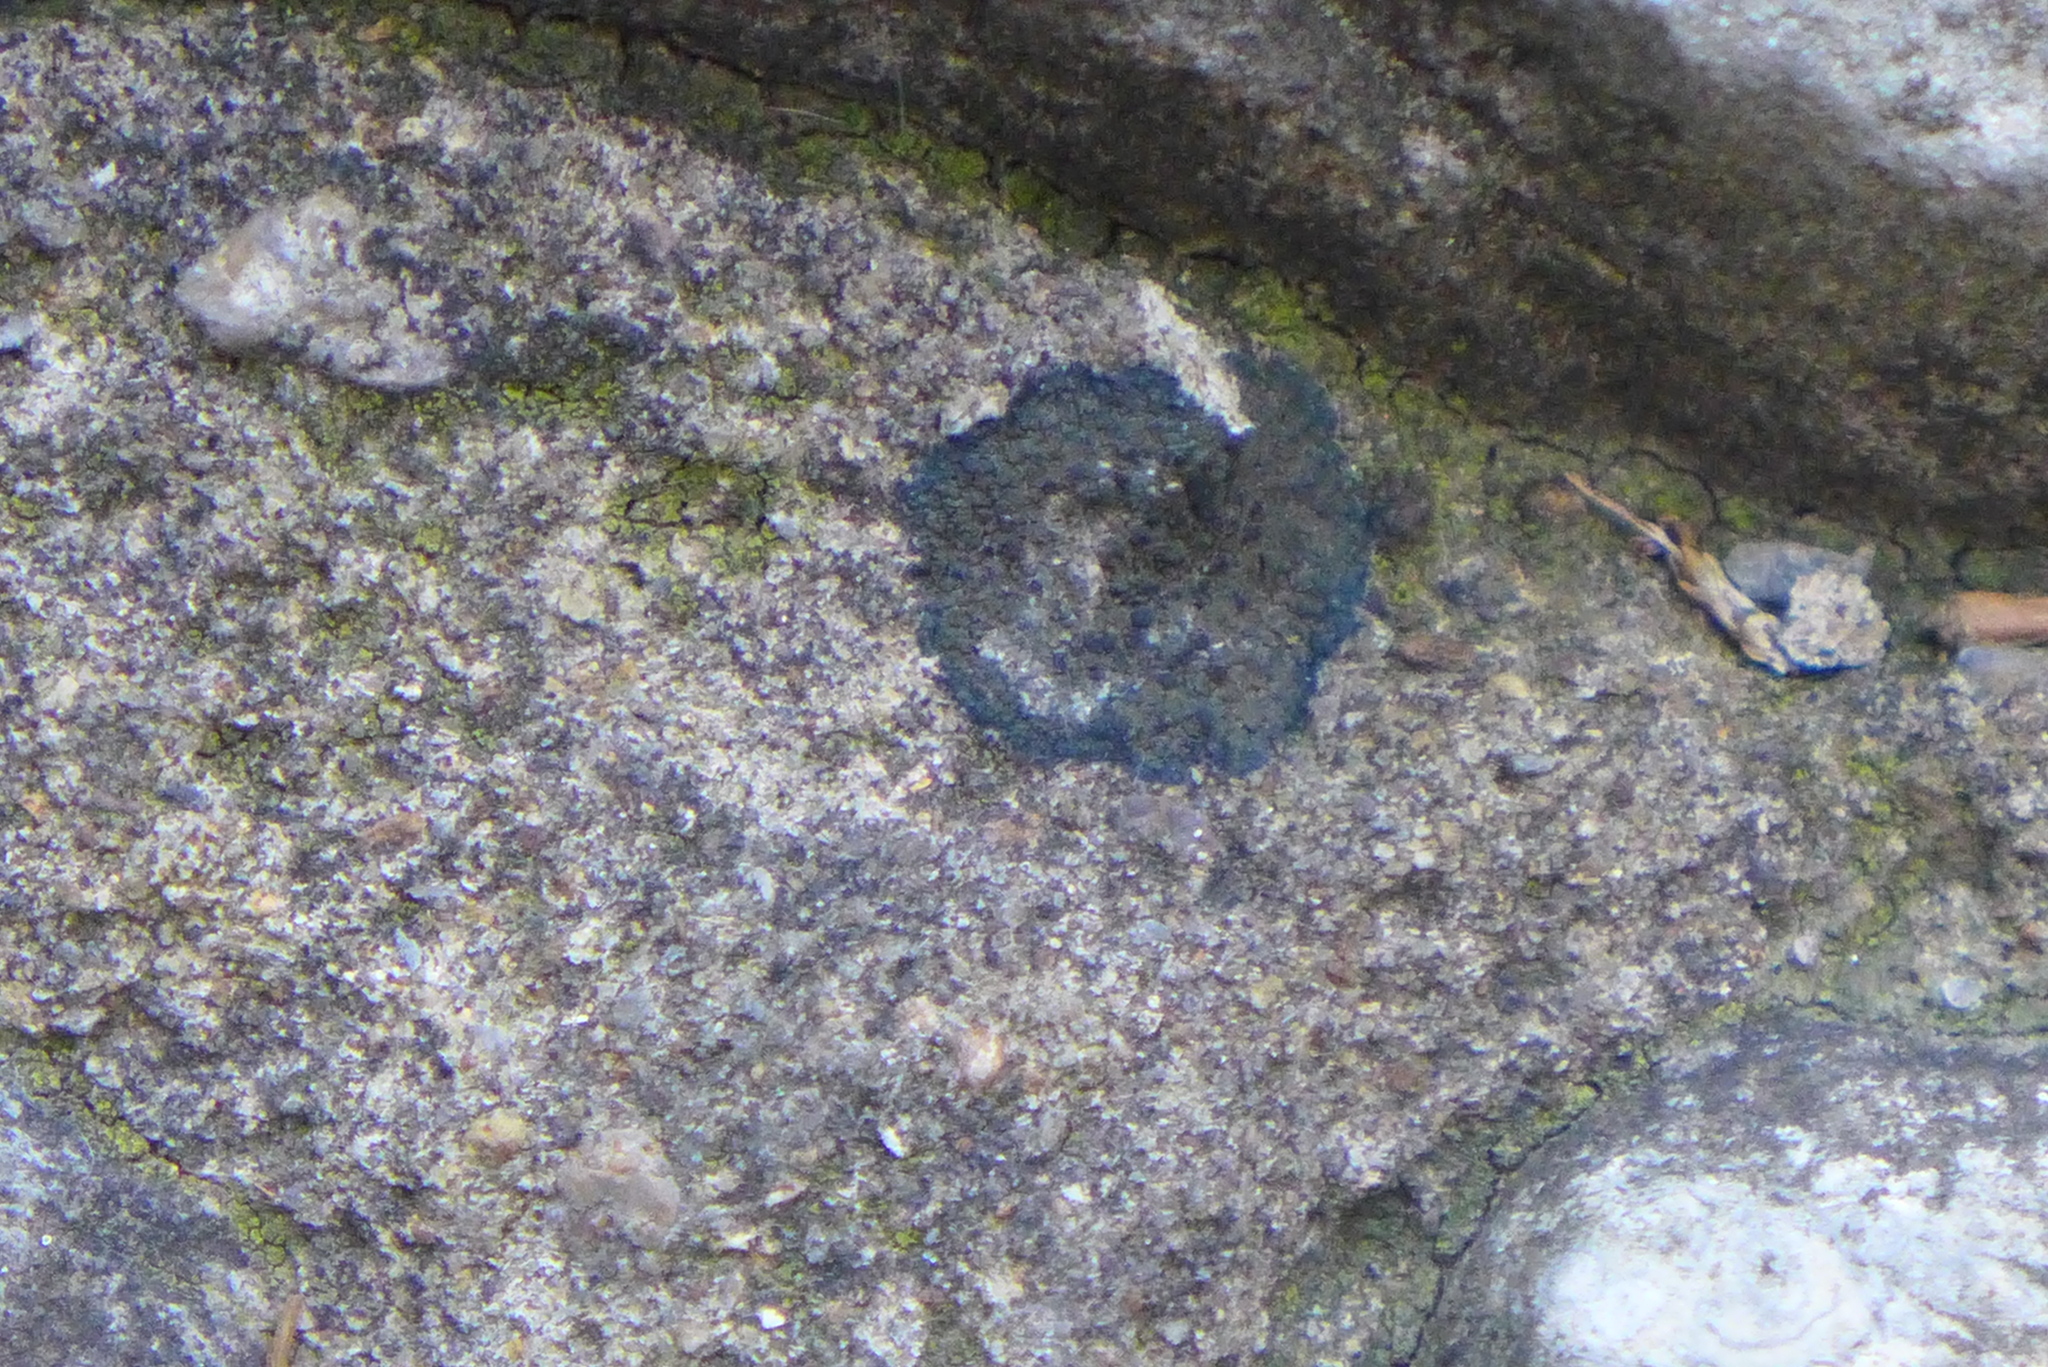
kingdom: Fungi
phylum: Ascomycota
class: Lecanoromycetes
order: Peltigerales
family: Placynthiaceae
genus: Placynthium
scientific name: Placynthium nigrum
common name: Blackthread lichen
